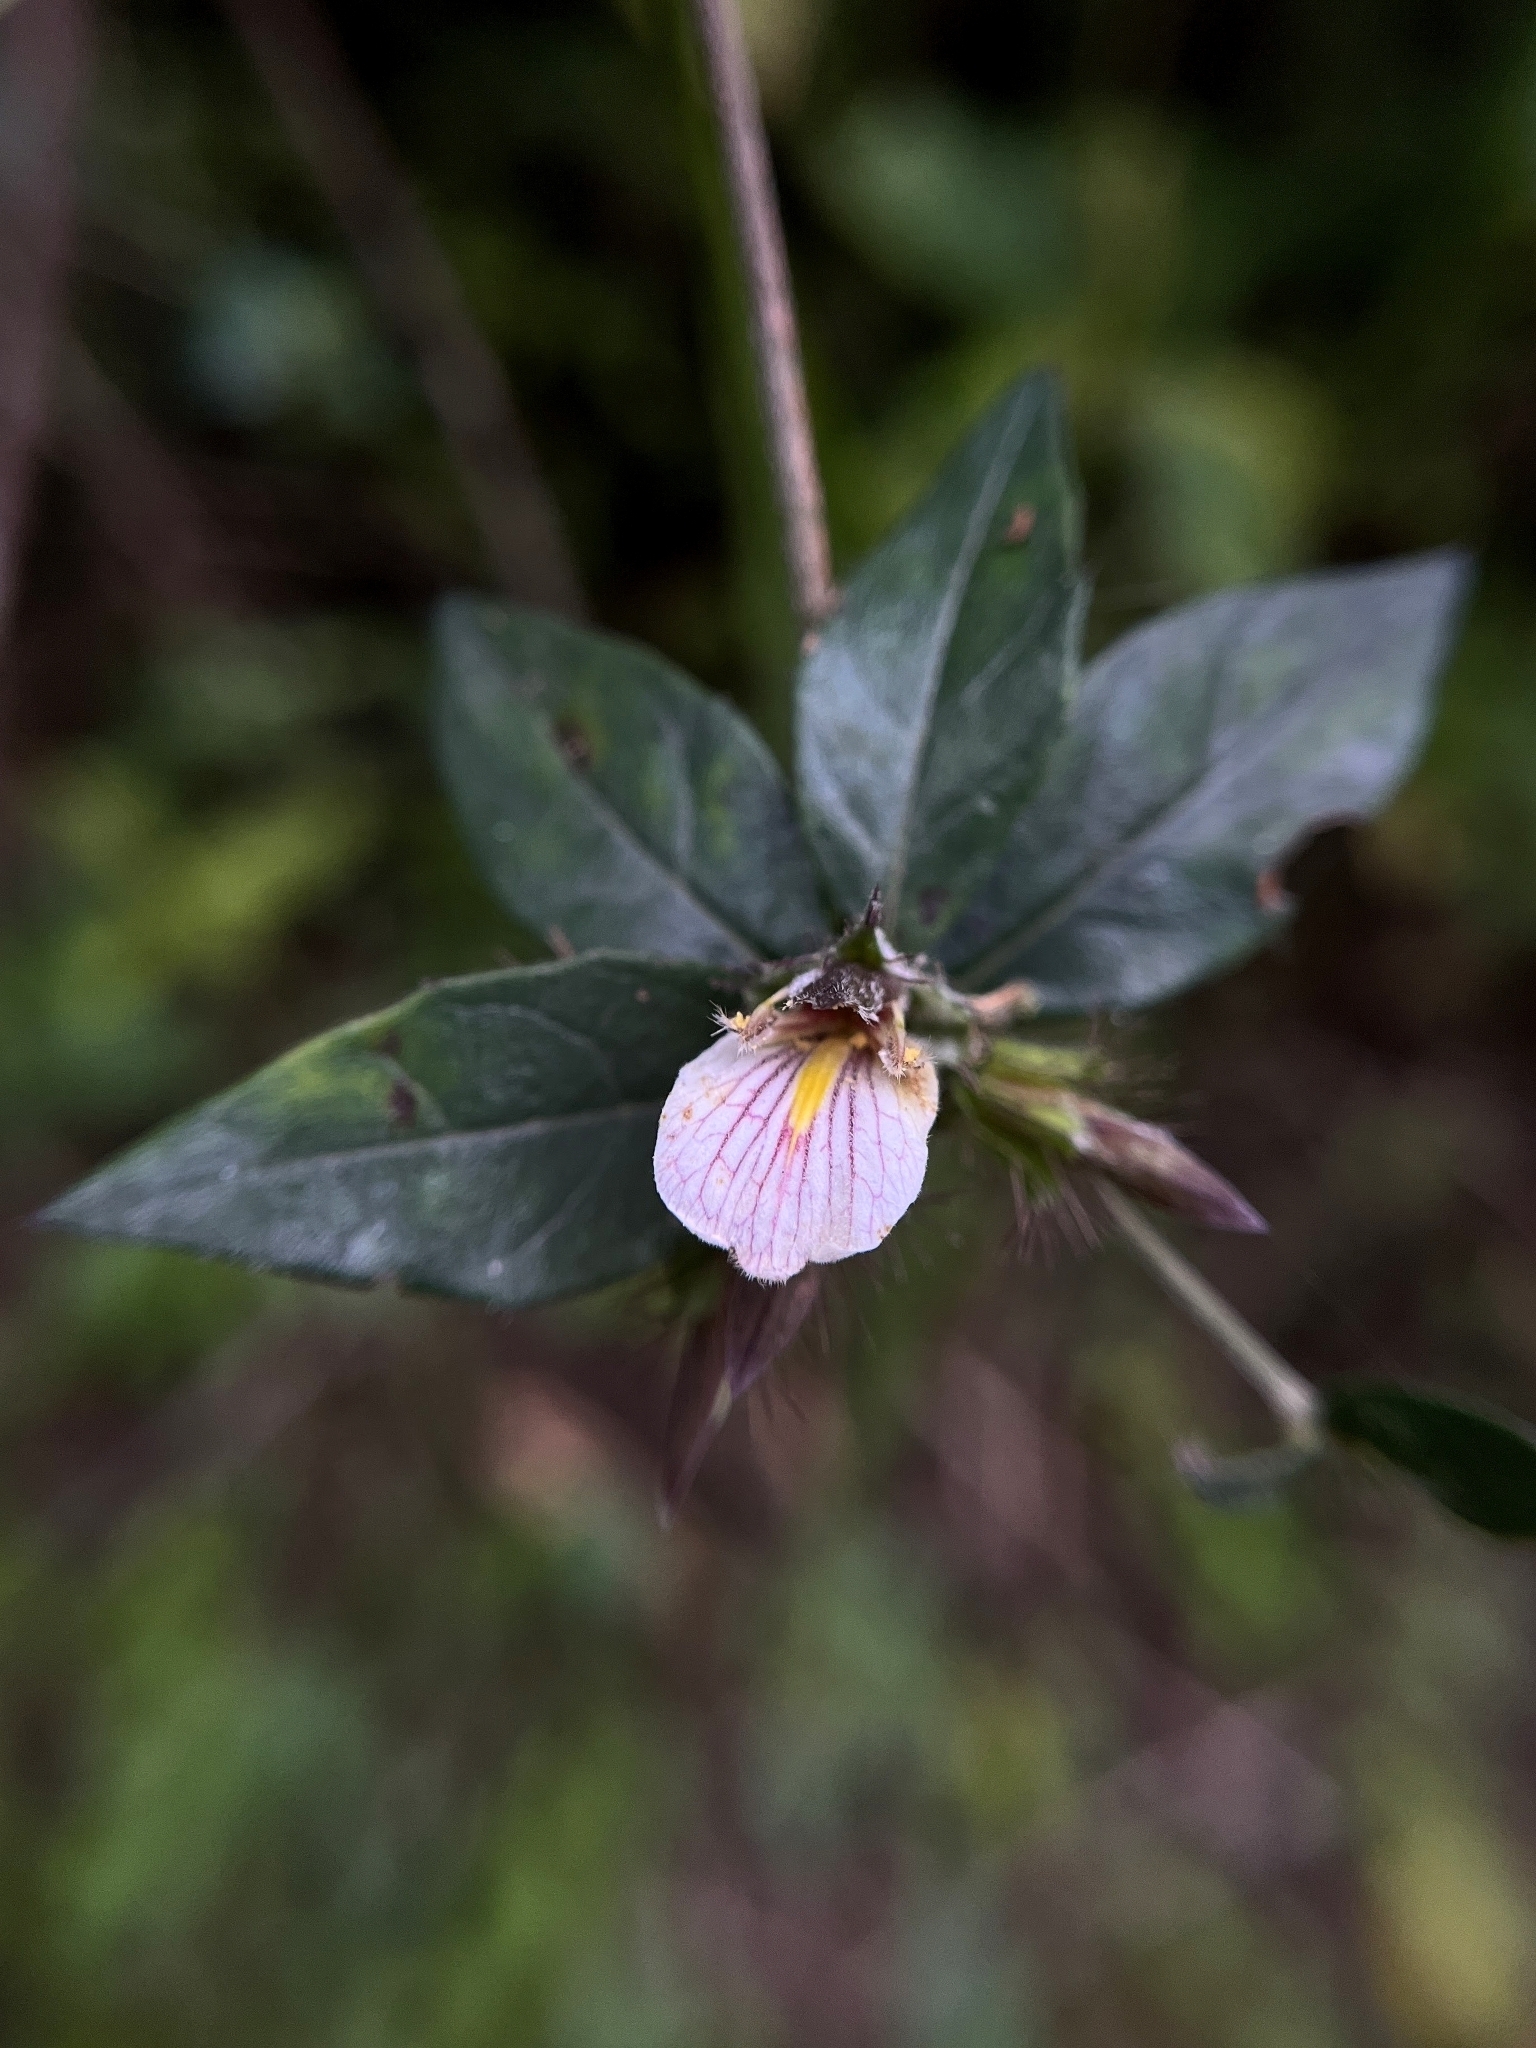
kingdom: Plantae
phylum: Tracheophyta
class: Magnoliopsida
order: Lamiales
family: Acanthaceae
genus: Blepharis
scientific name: Blepharis maderaspatensis
